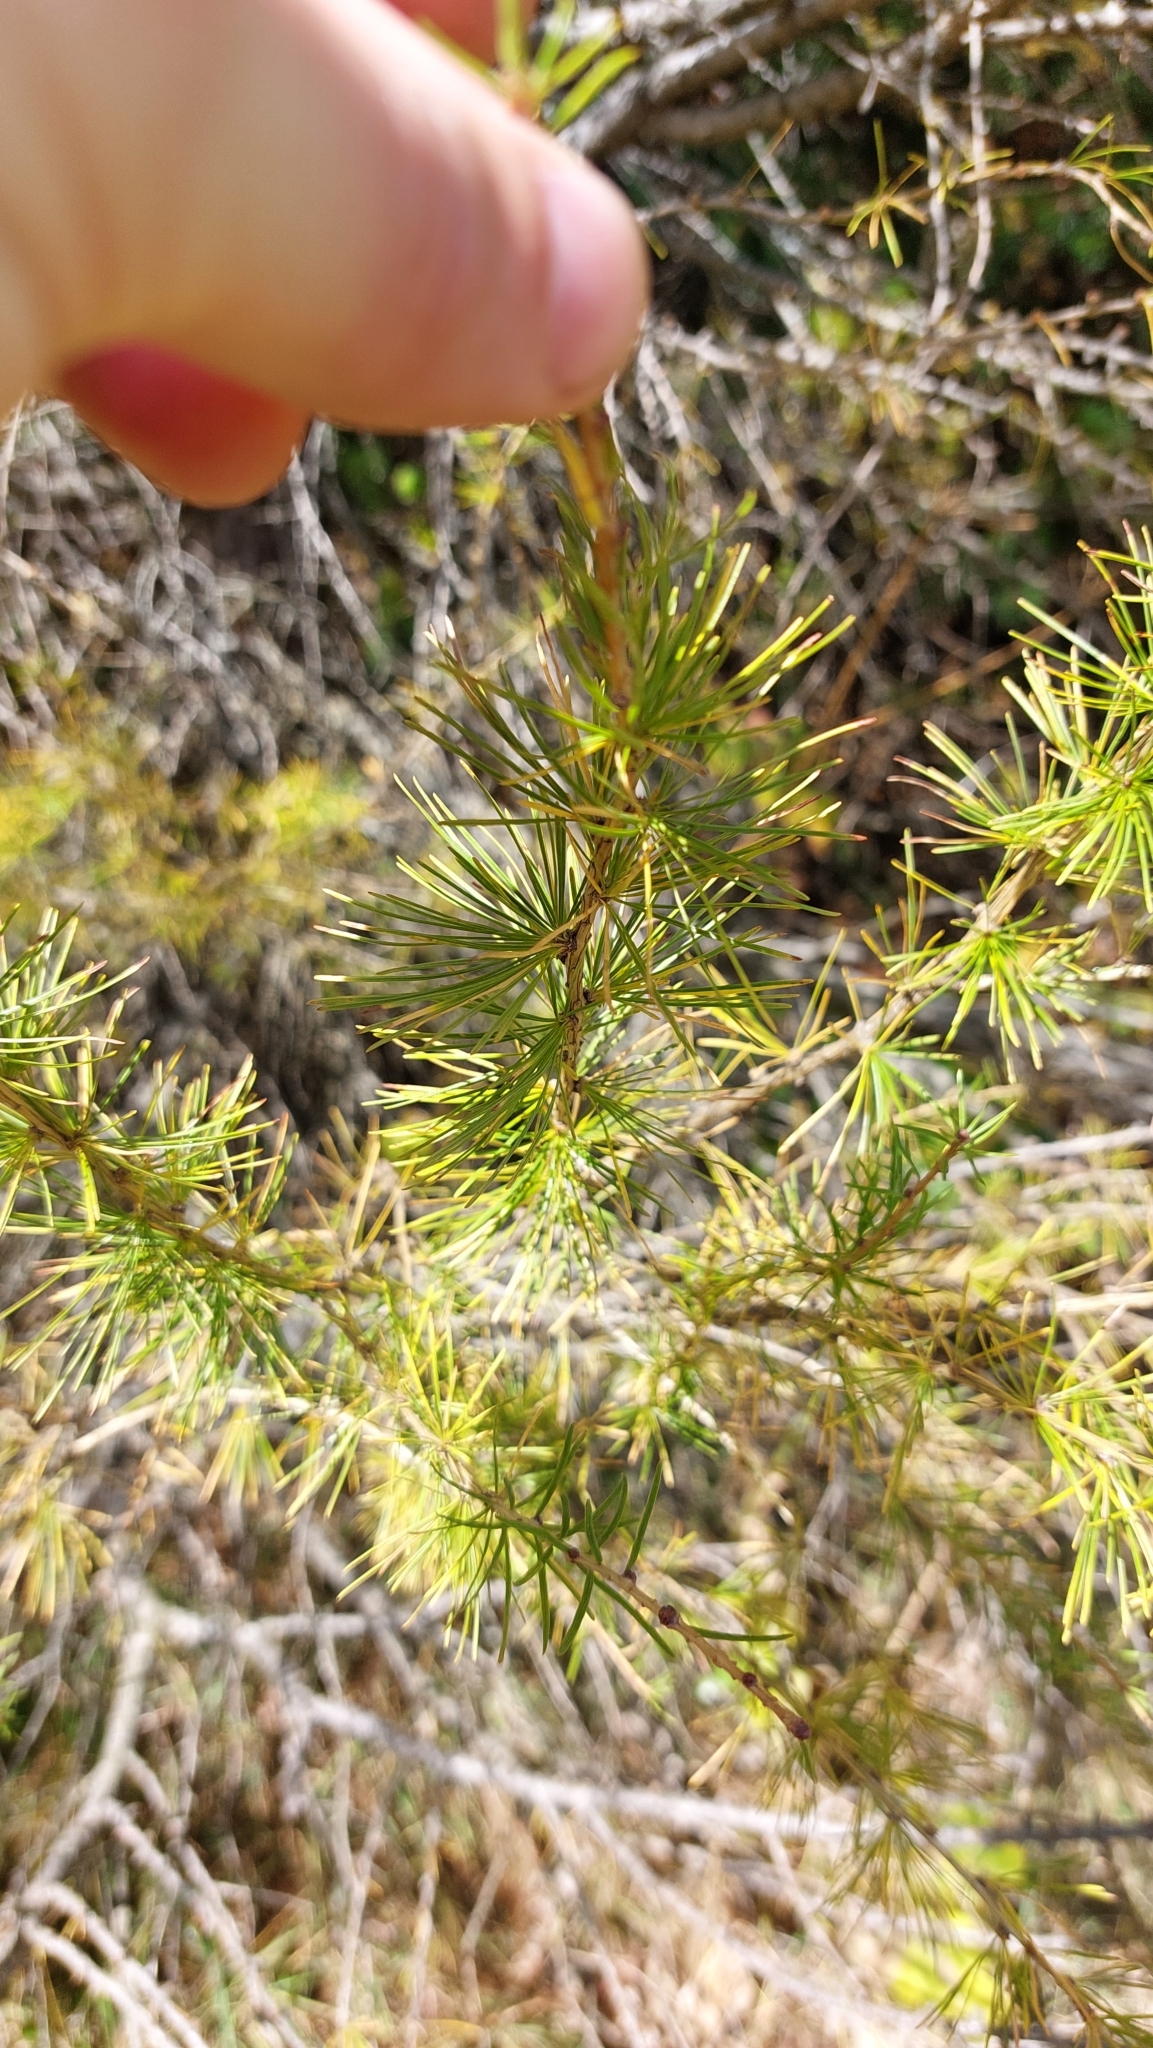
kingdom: Plantae
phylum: Tracheophyta
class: Pinopsida
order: Pinales
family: Pinaceae
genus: Larix
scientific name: Larix decidua
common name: European larch
